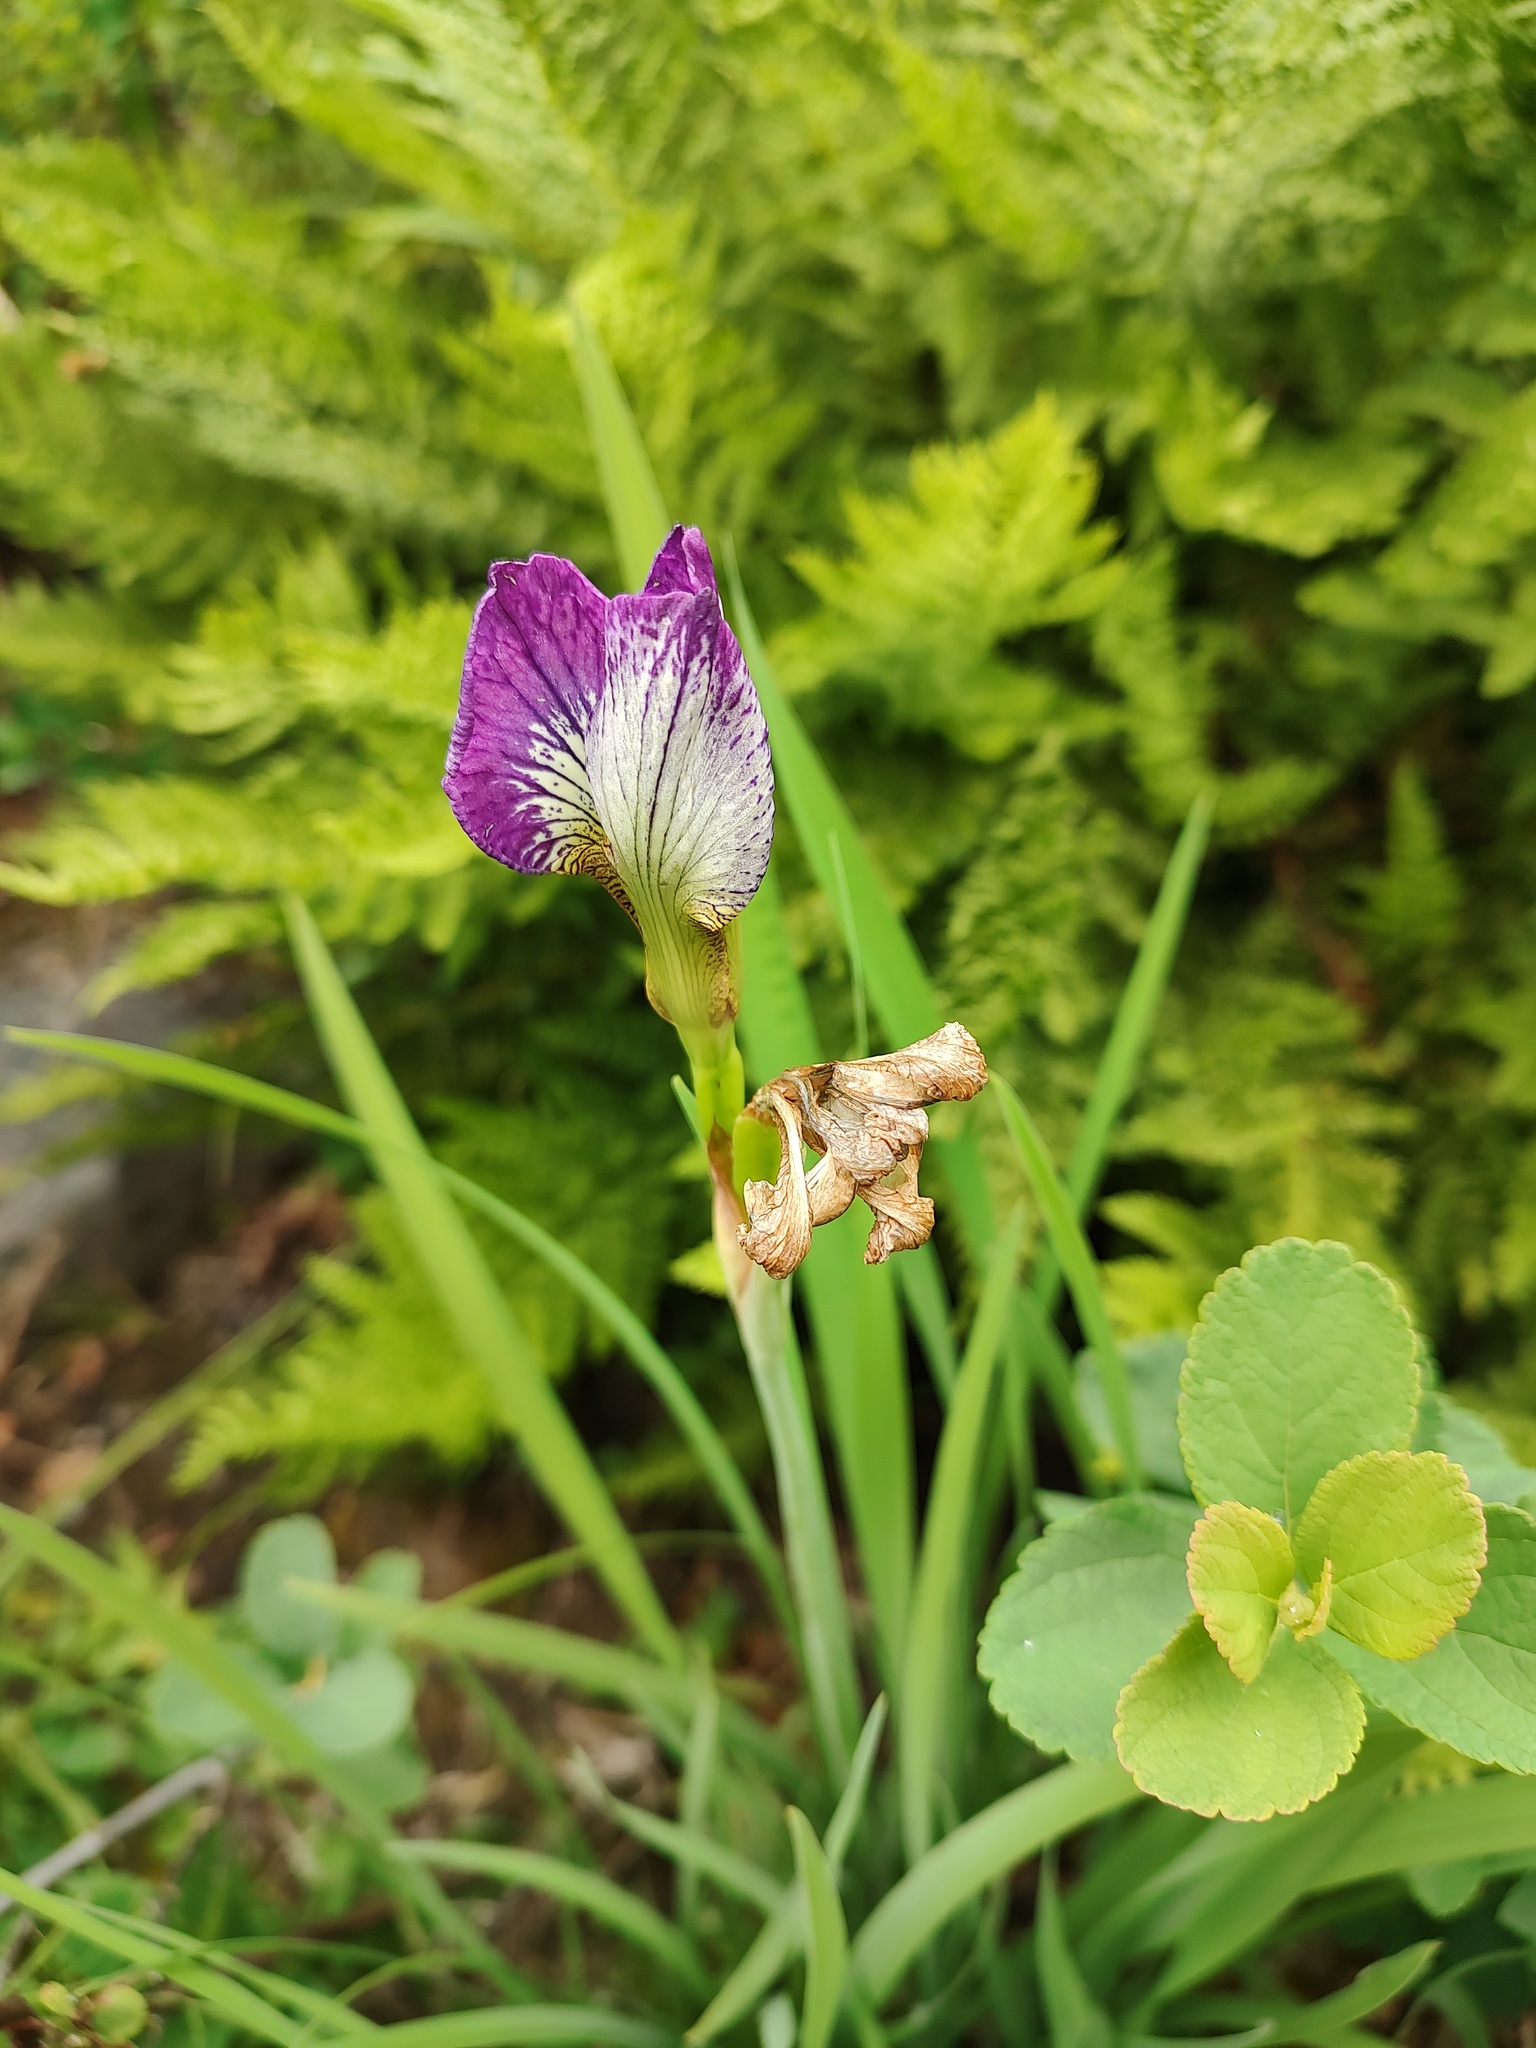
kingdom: Plantae
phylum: Tracheophyta
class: Liliopsida
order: Asparagales
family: Iridaceae
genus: Iris
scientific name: Iris sanguinea
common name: Blood iris
